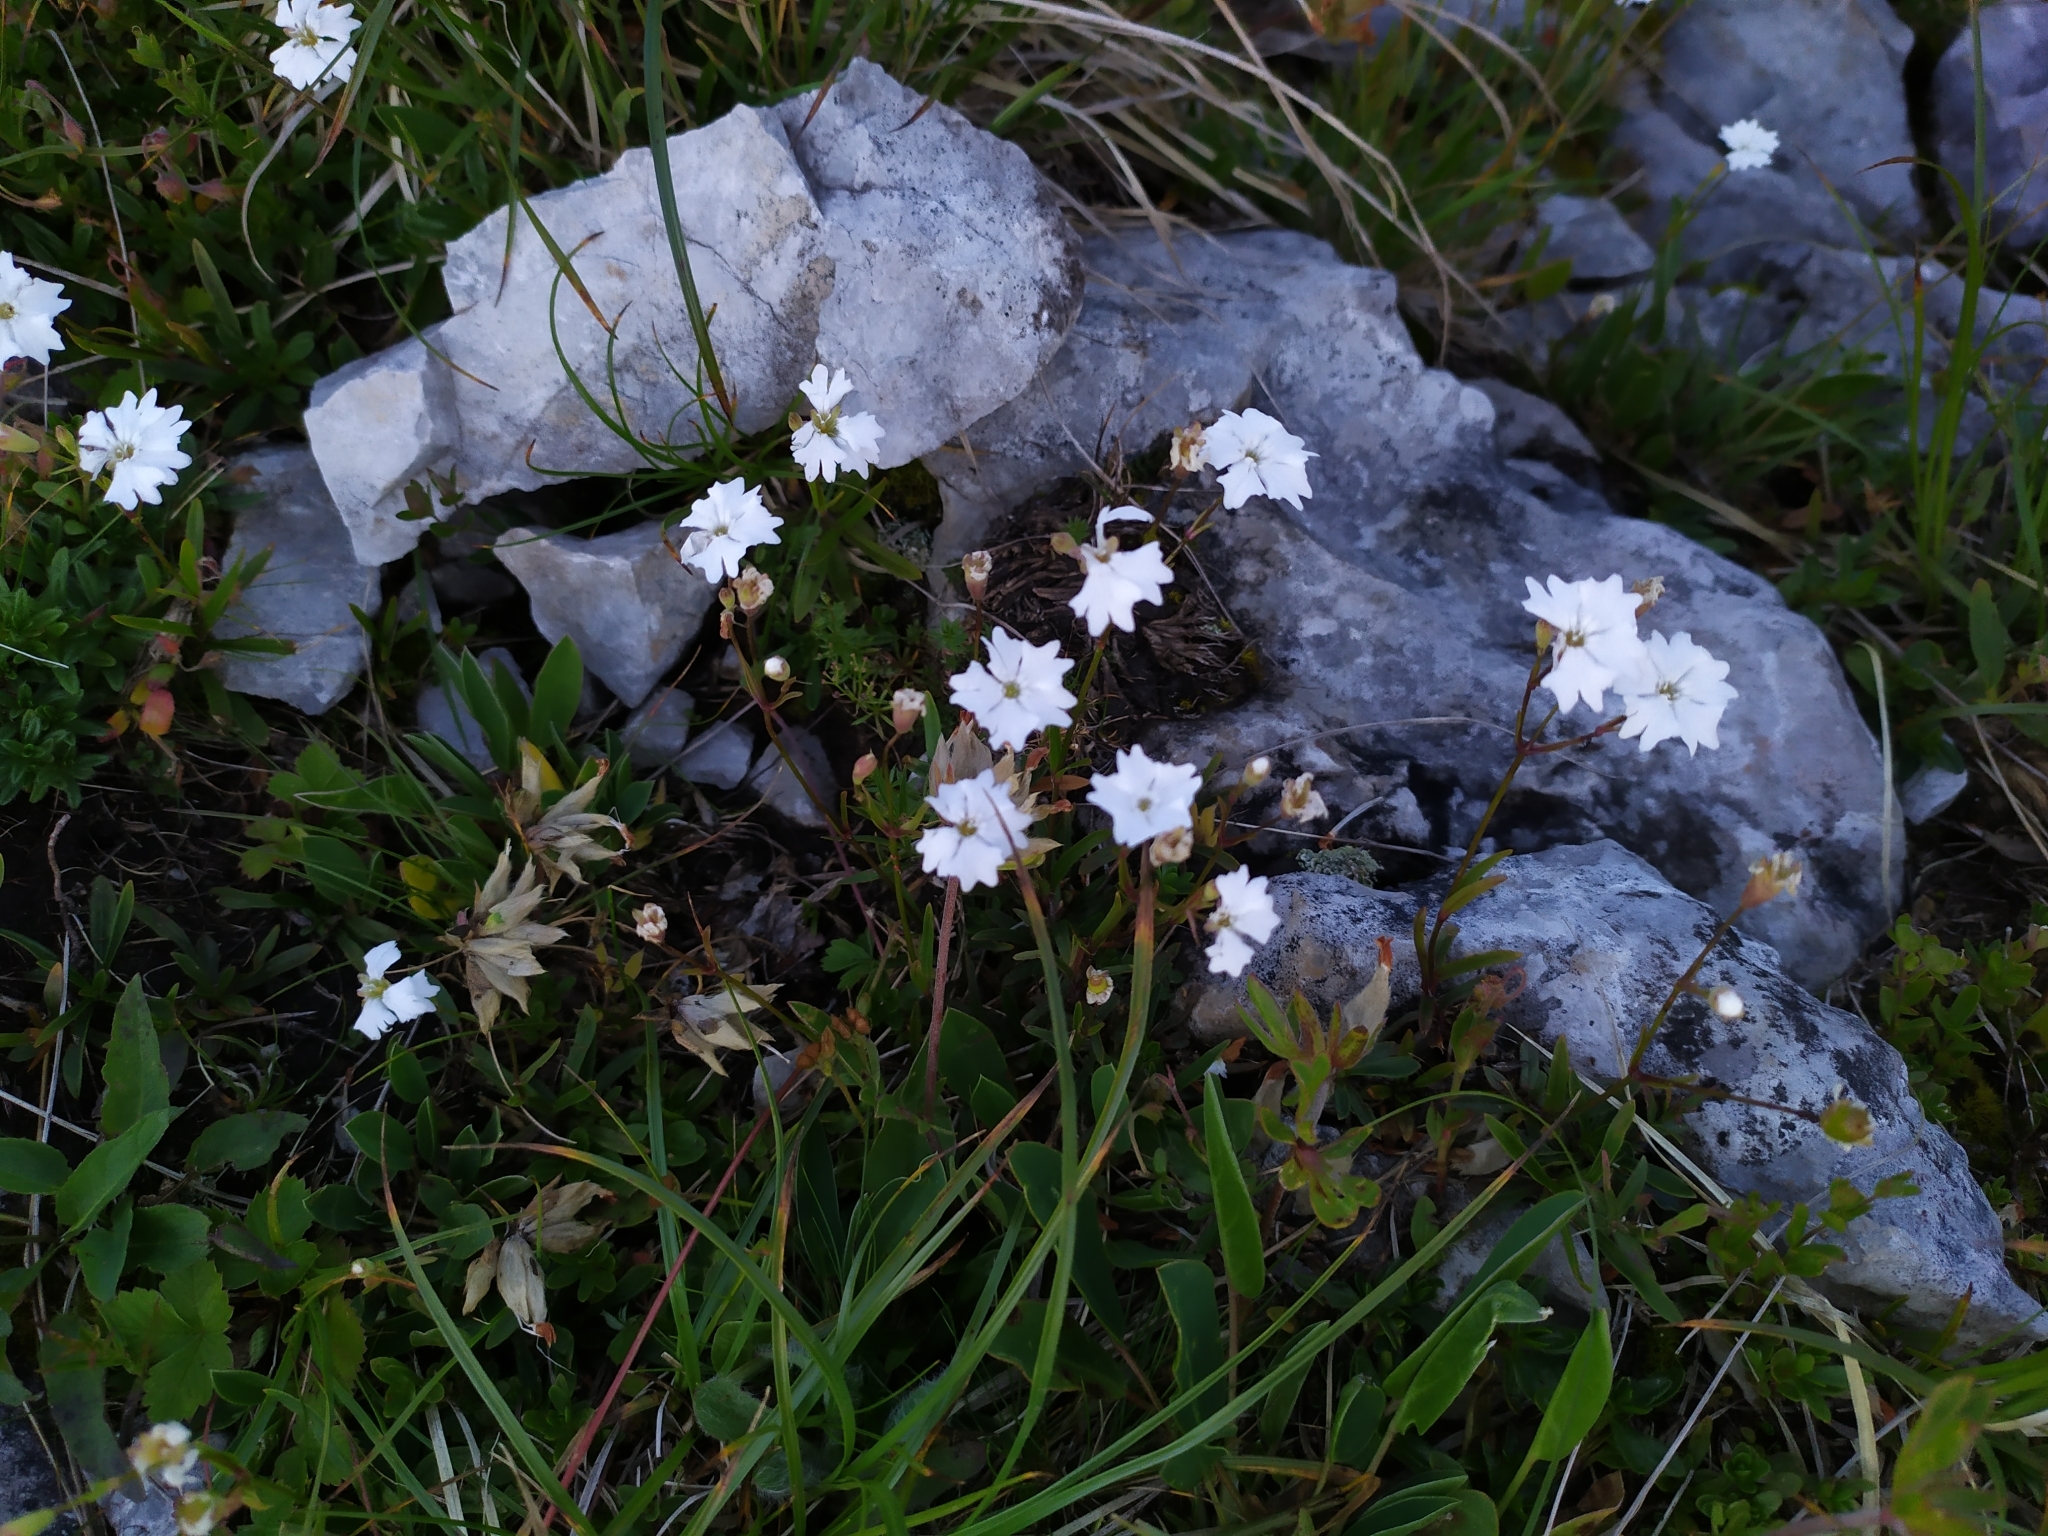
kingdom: Plantae
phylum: Tracheophyta
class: Magnoliopsida
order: Caryophyllales
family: Caryophyllaceae
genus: Heliosperma
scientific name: Heliosperma alpestre
